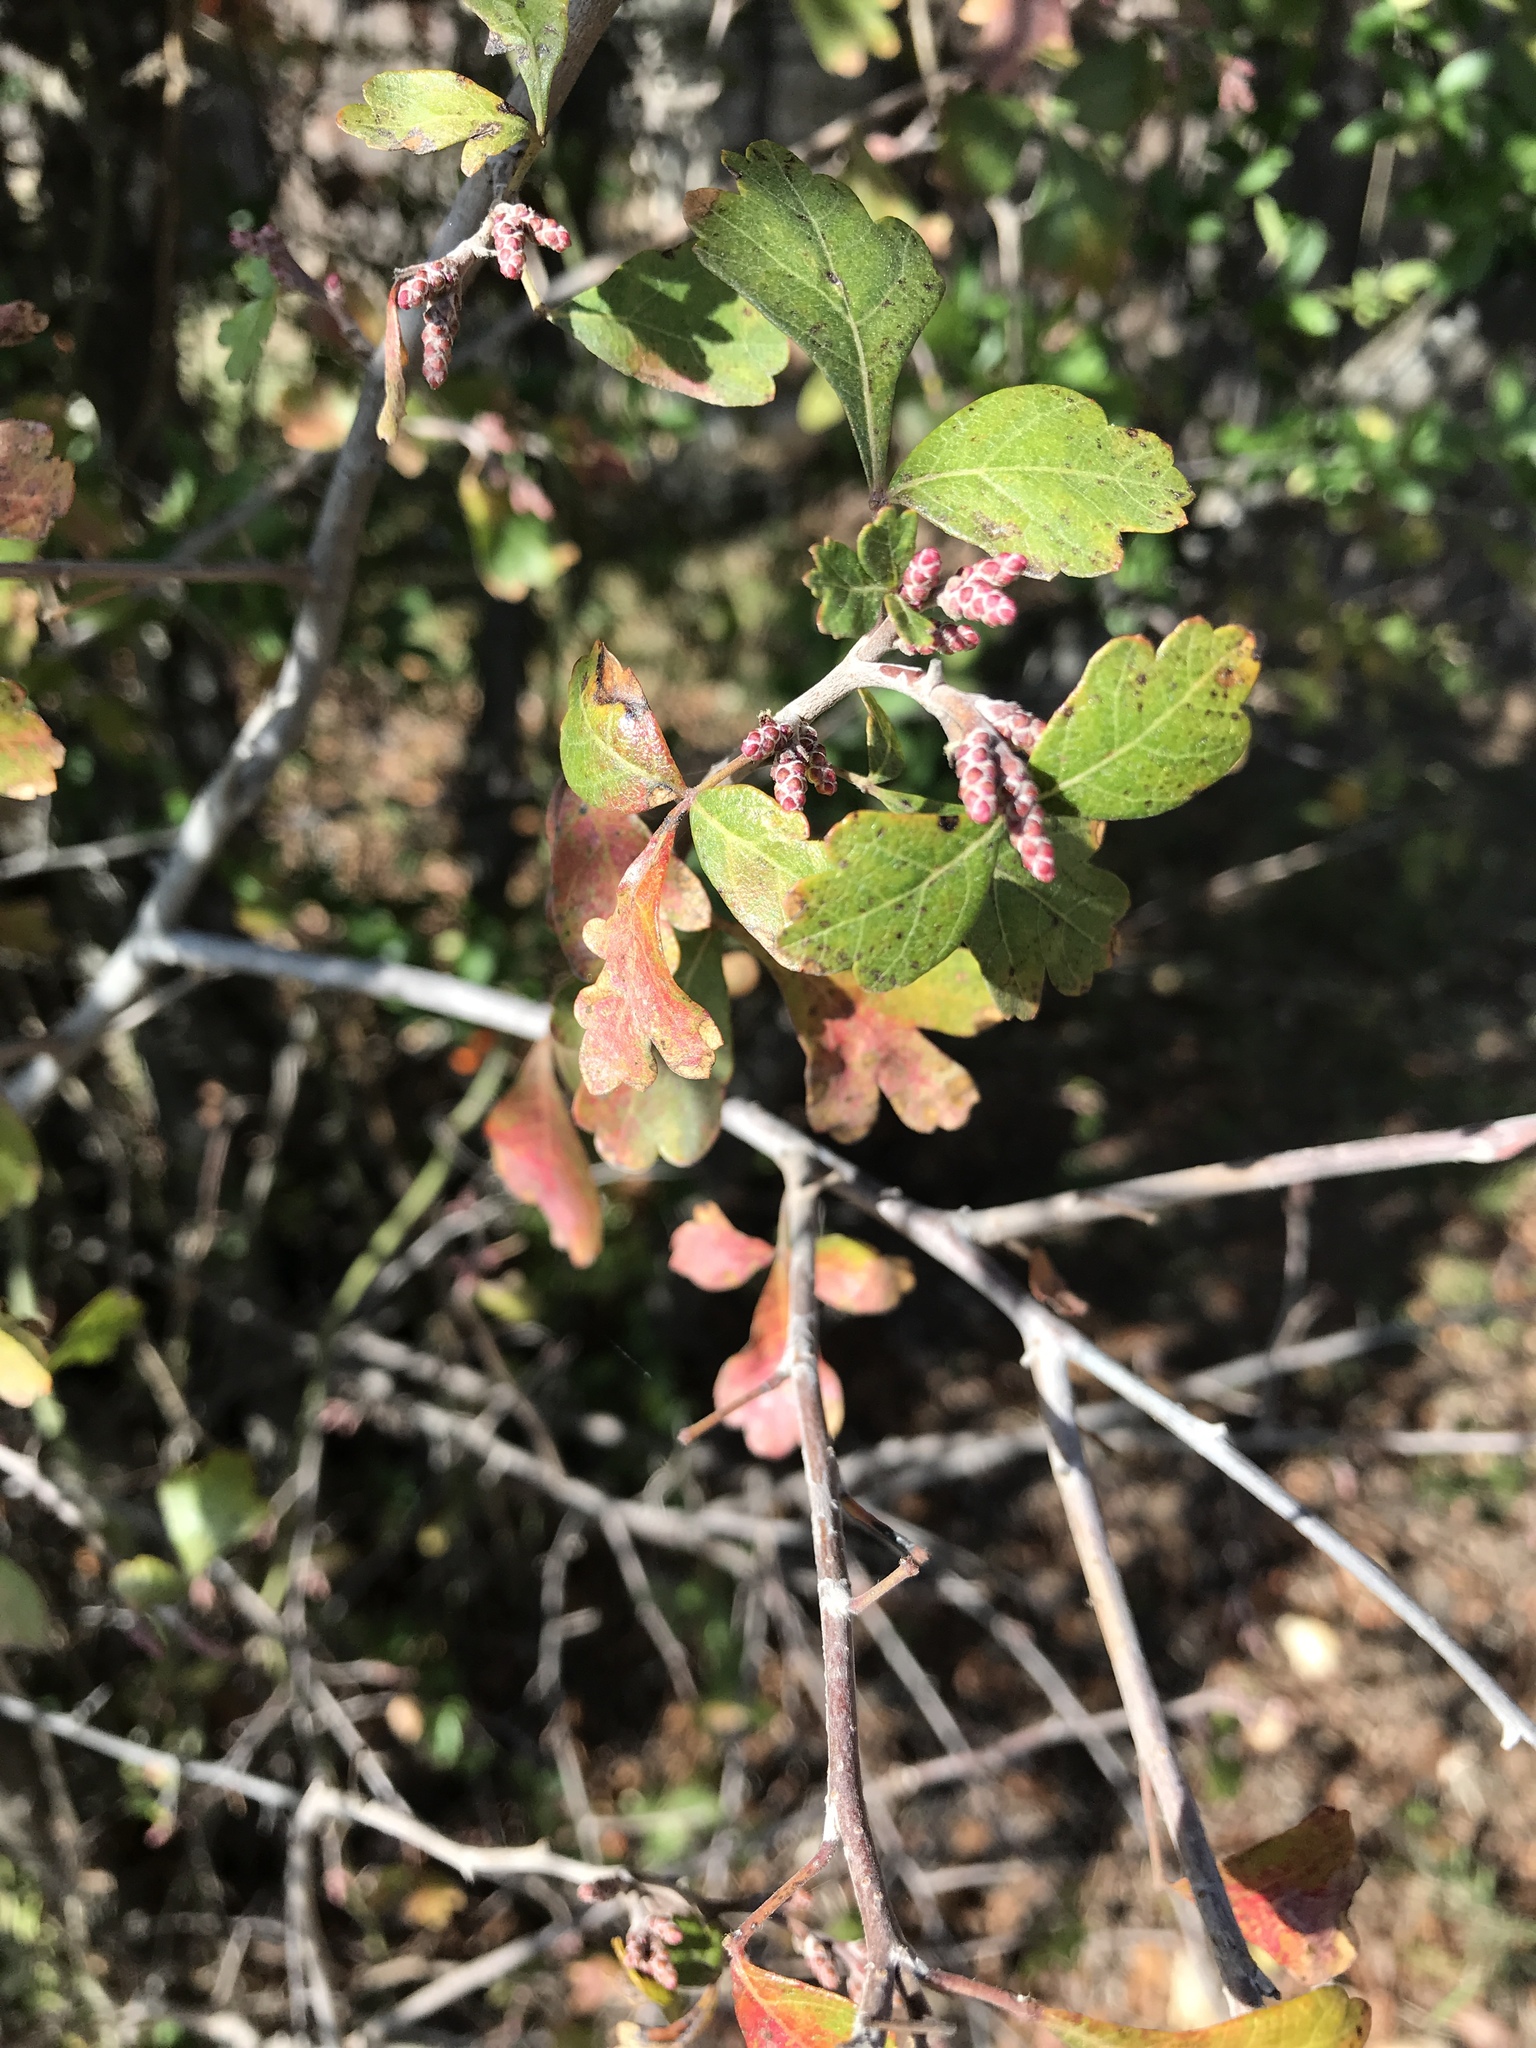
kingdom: Plantae
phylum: Tracheophyta
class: Magnoliopsida
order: Sapindales
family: Anacardiaceae
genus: Rhus
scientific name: Rhus aromatica
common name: Aromatic sumac
